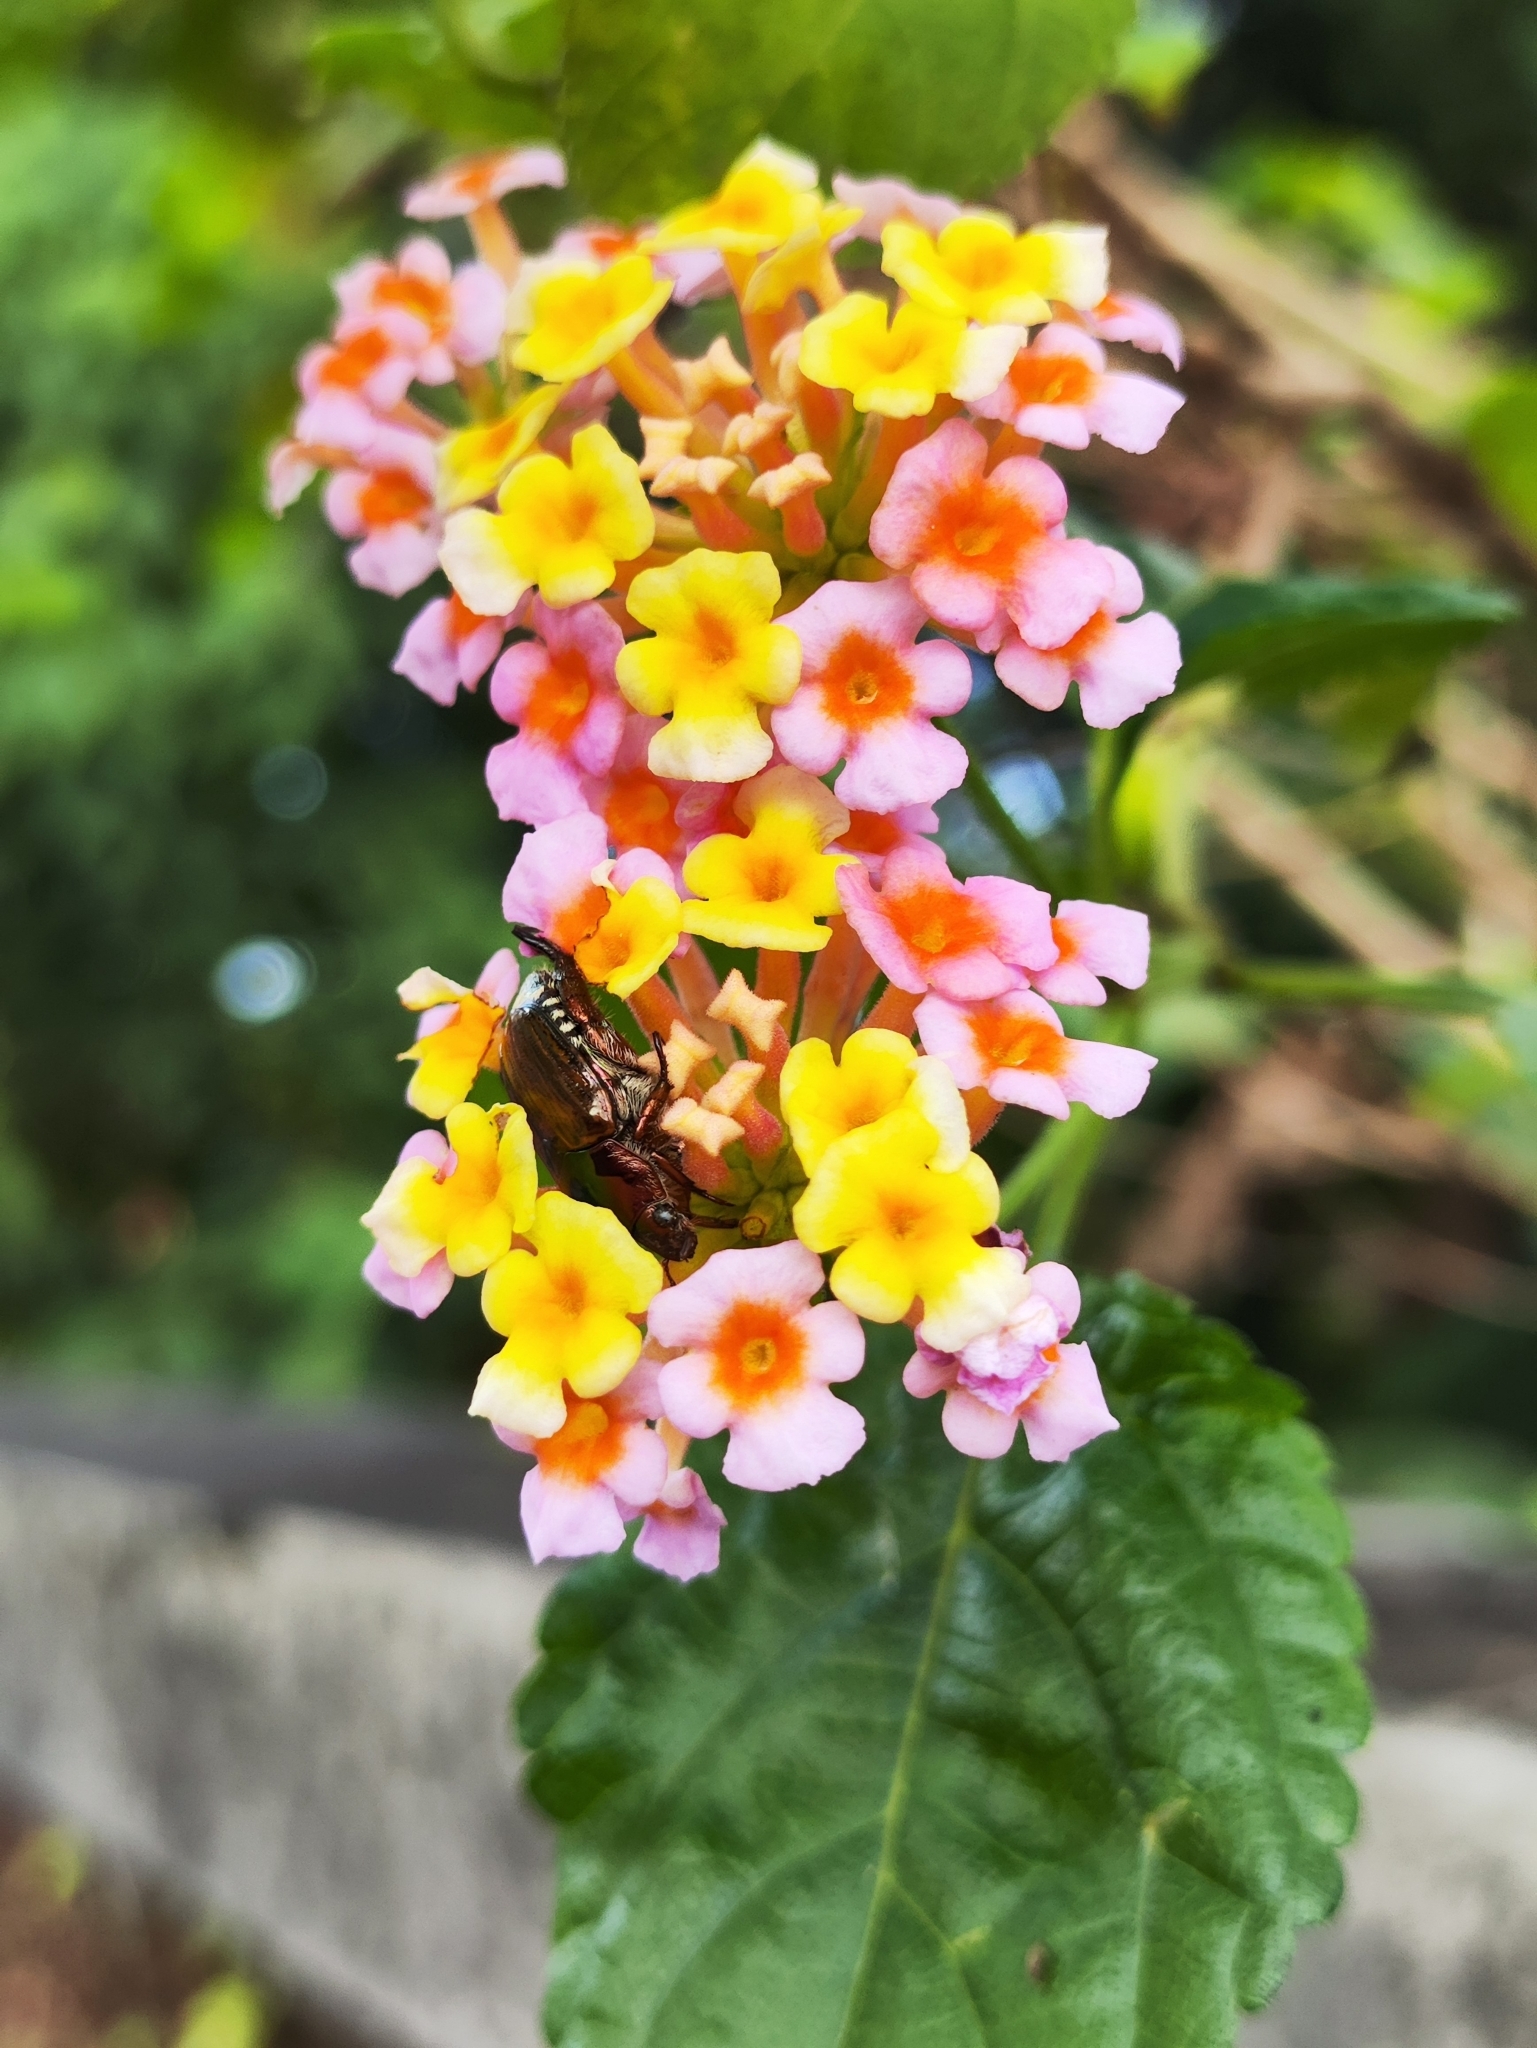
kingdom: Plantae
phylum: Tracheophyta
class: Magnoliopsida
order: Lamiales
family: Verbenaceae
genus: Lantana
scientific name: Lantana camara
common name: Lantana
